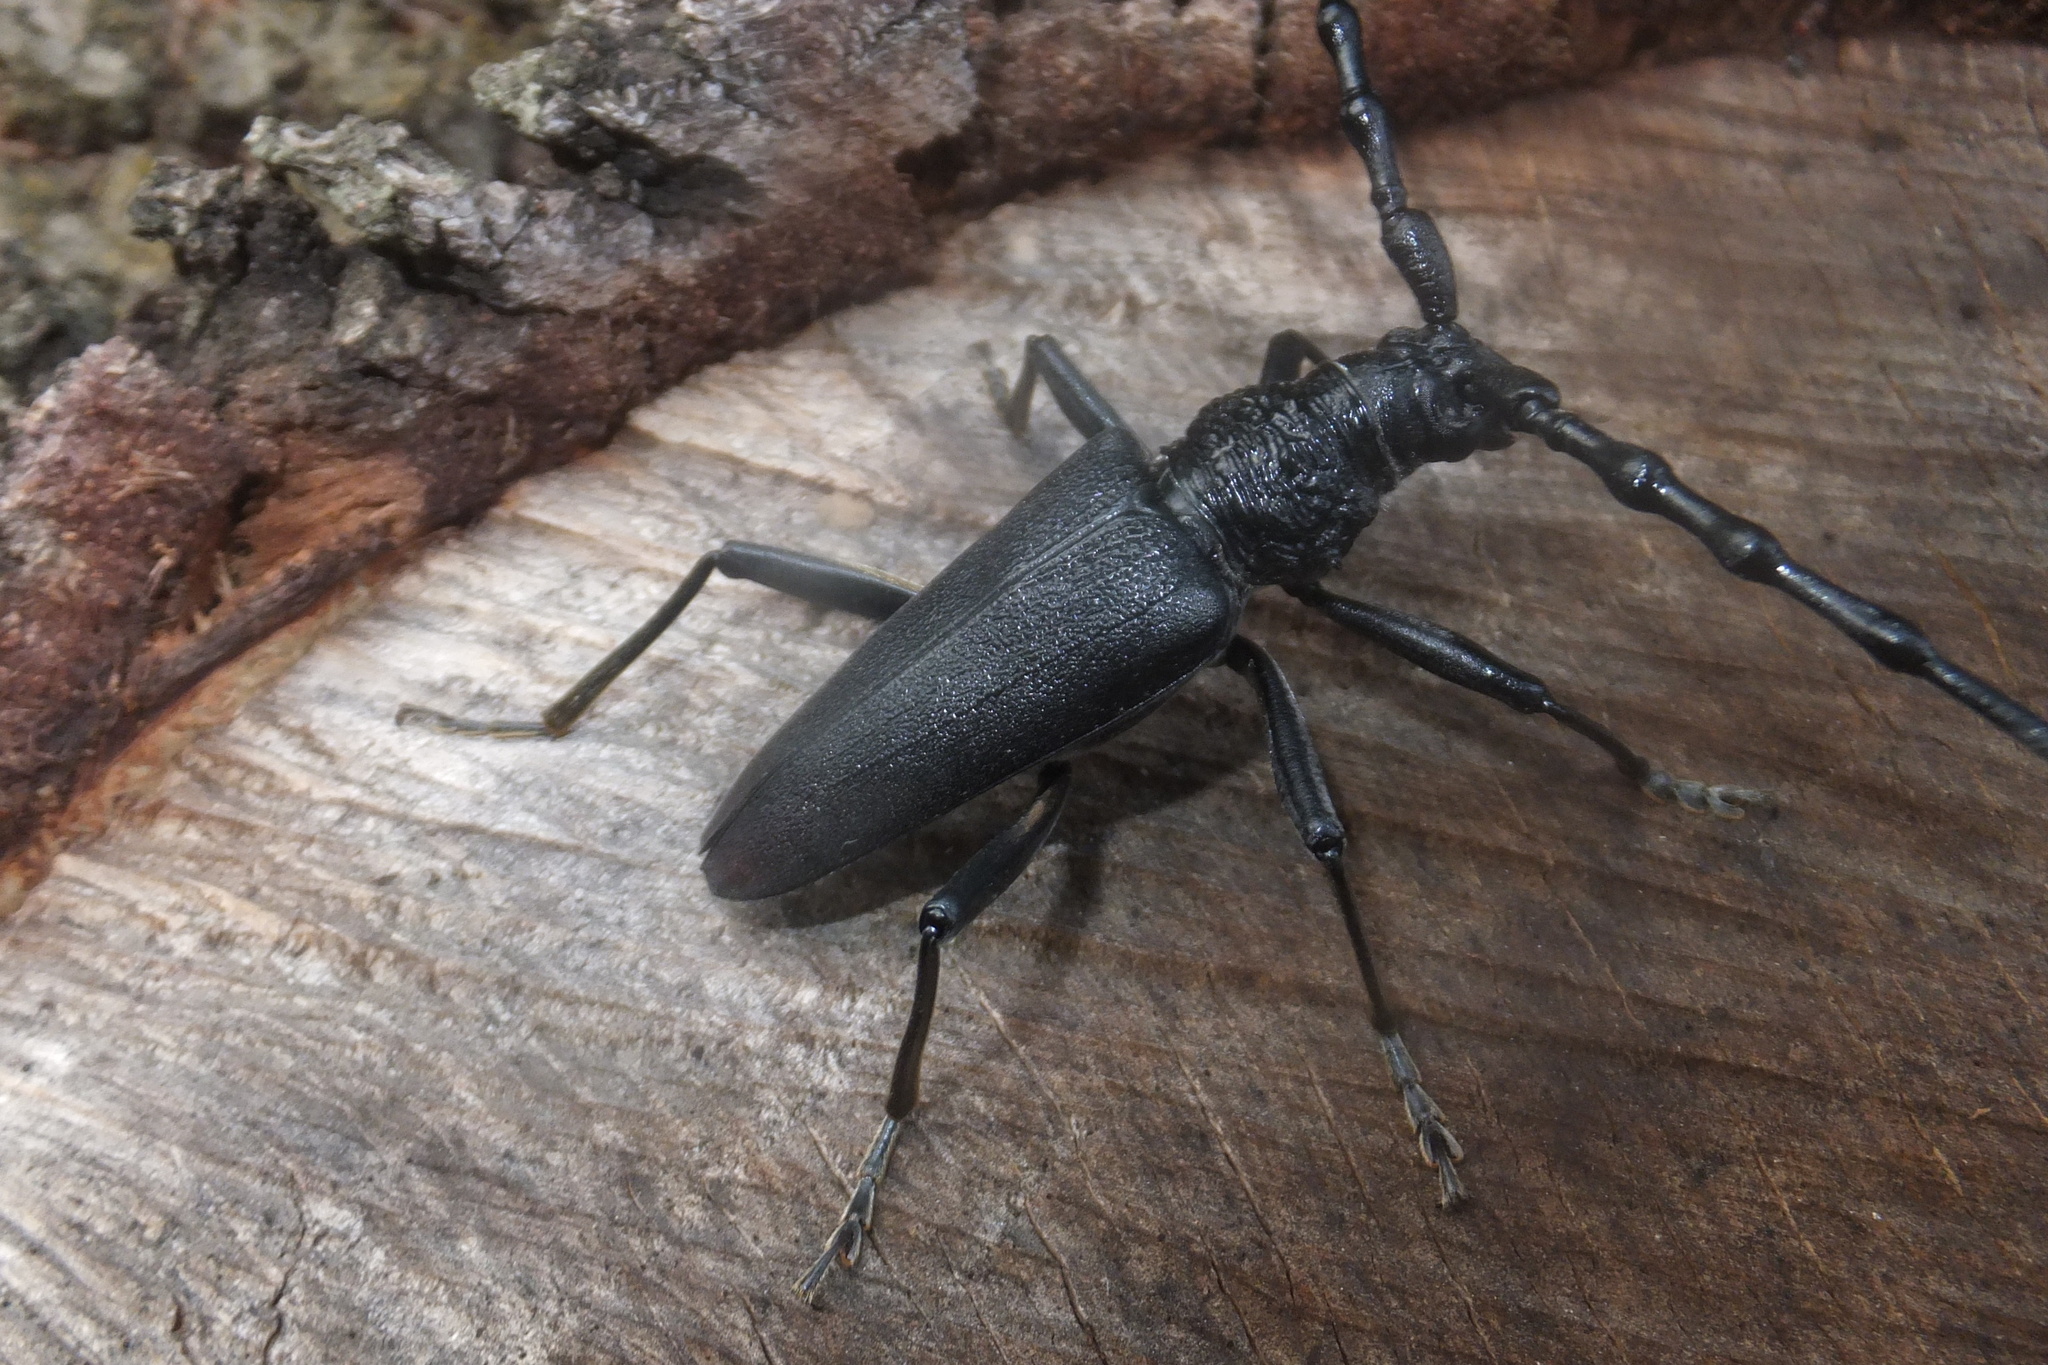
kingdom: Animalia
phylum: Arthropoda
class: Insecta
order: Coleoptera
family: Cerambycidae
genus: Cerambyx
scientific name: Cerambyx cerdo
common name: Cerambyx longicorn
